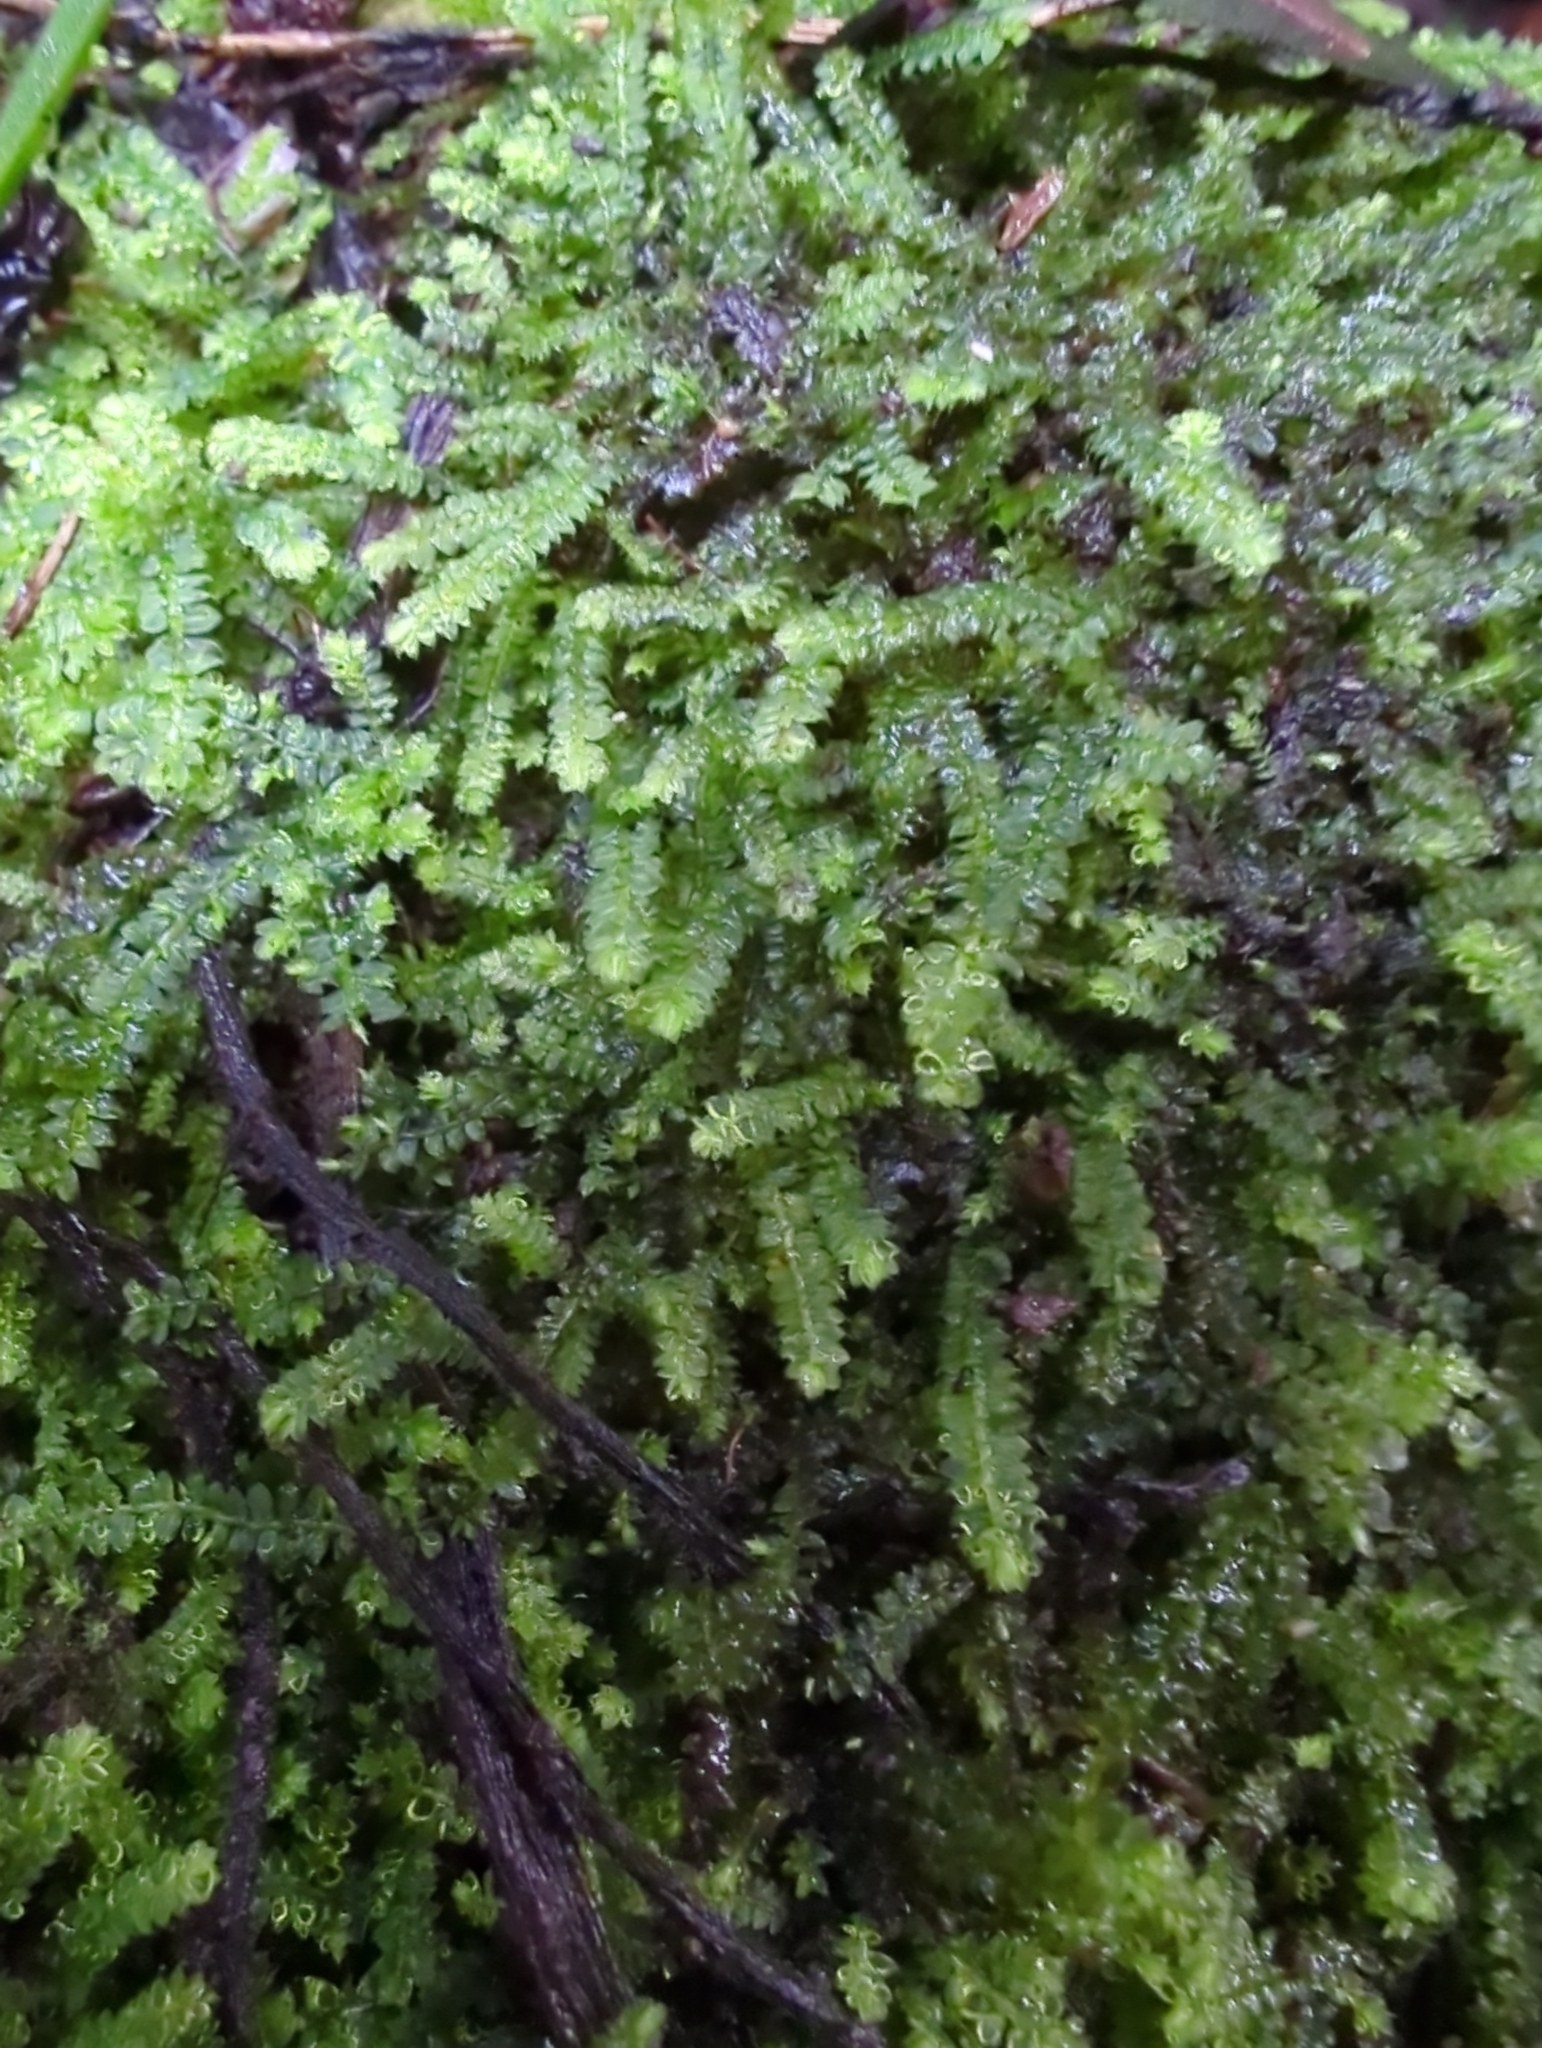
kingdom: Plantae
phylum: Bryophyta
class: Bryopsida
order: Hypnodendrales
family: Racopilaceae
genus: Racopilum
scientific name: Racopilum cuspidigerum
